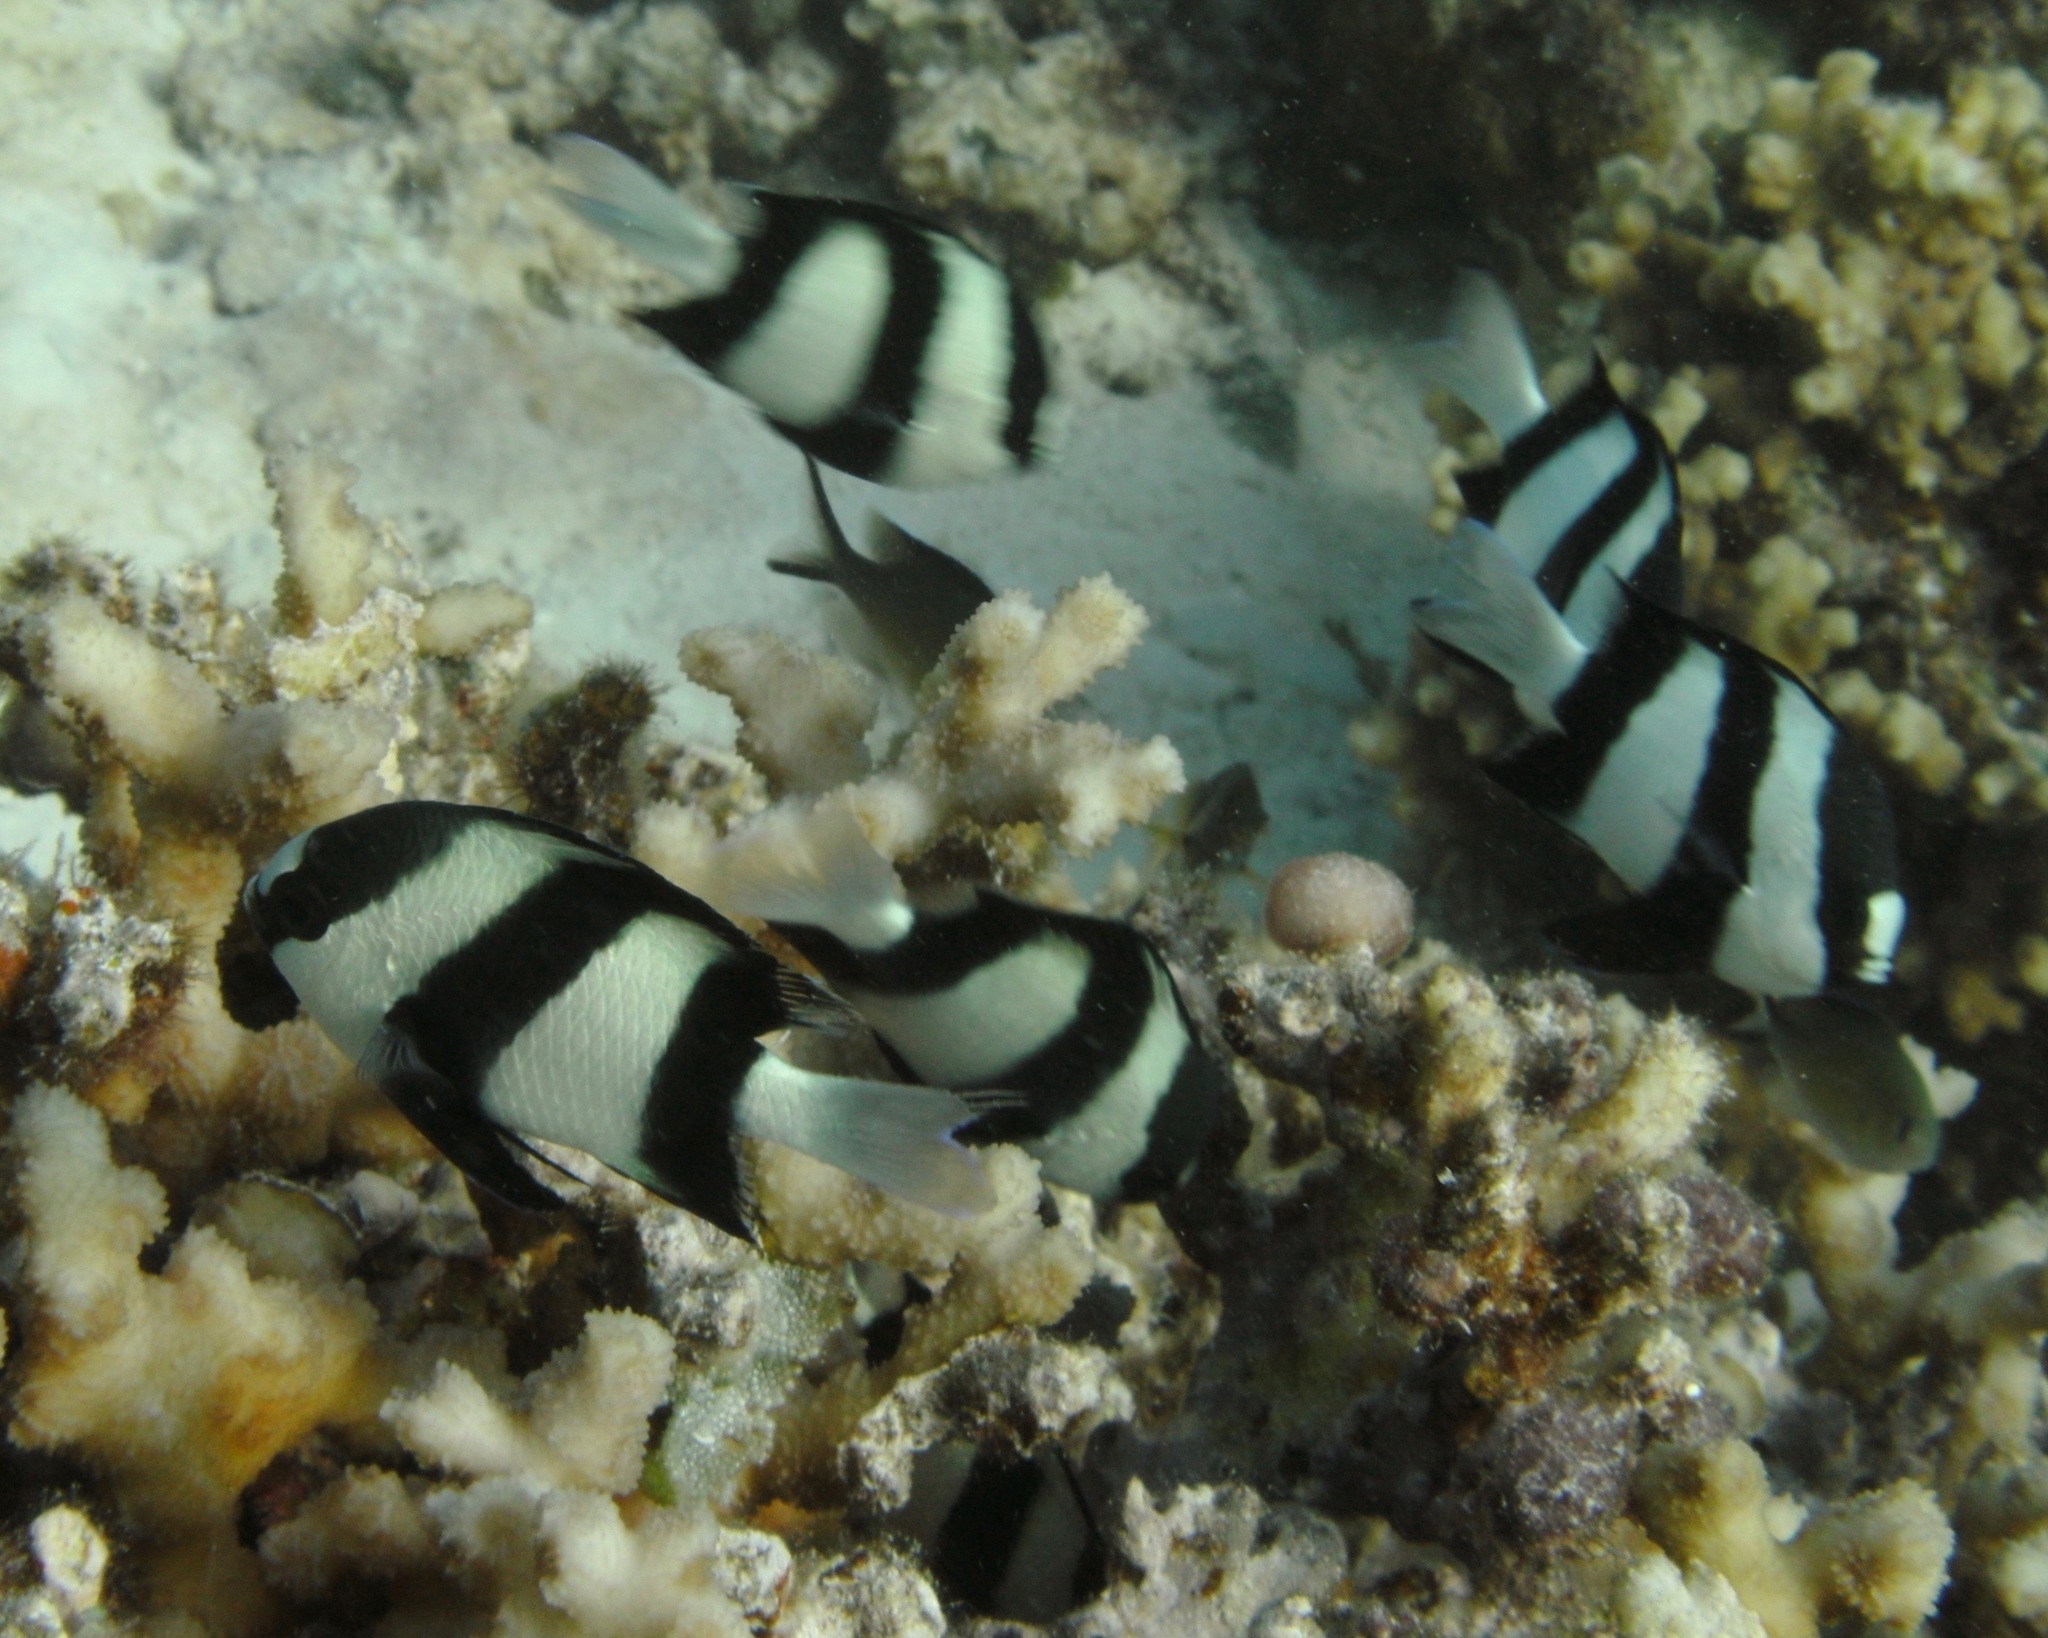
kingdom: Animalia
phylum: Chordata
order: Perciformes
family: Pomacentridae
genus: Dascyllus
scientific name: Dascyllus abudafur
